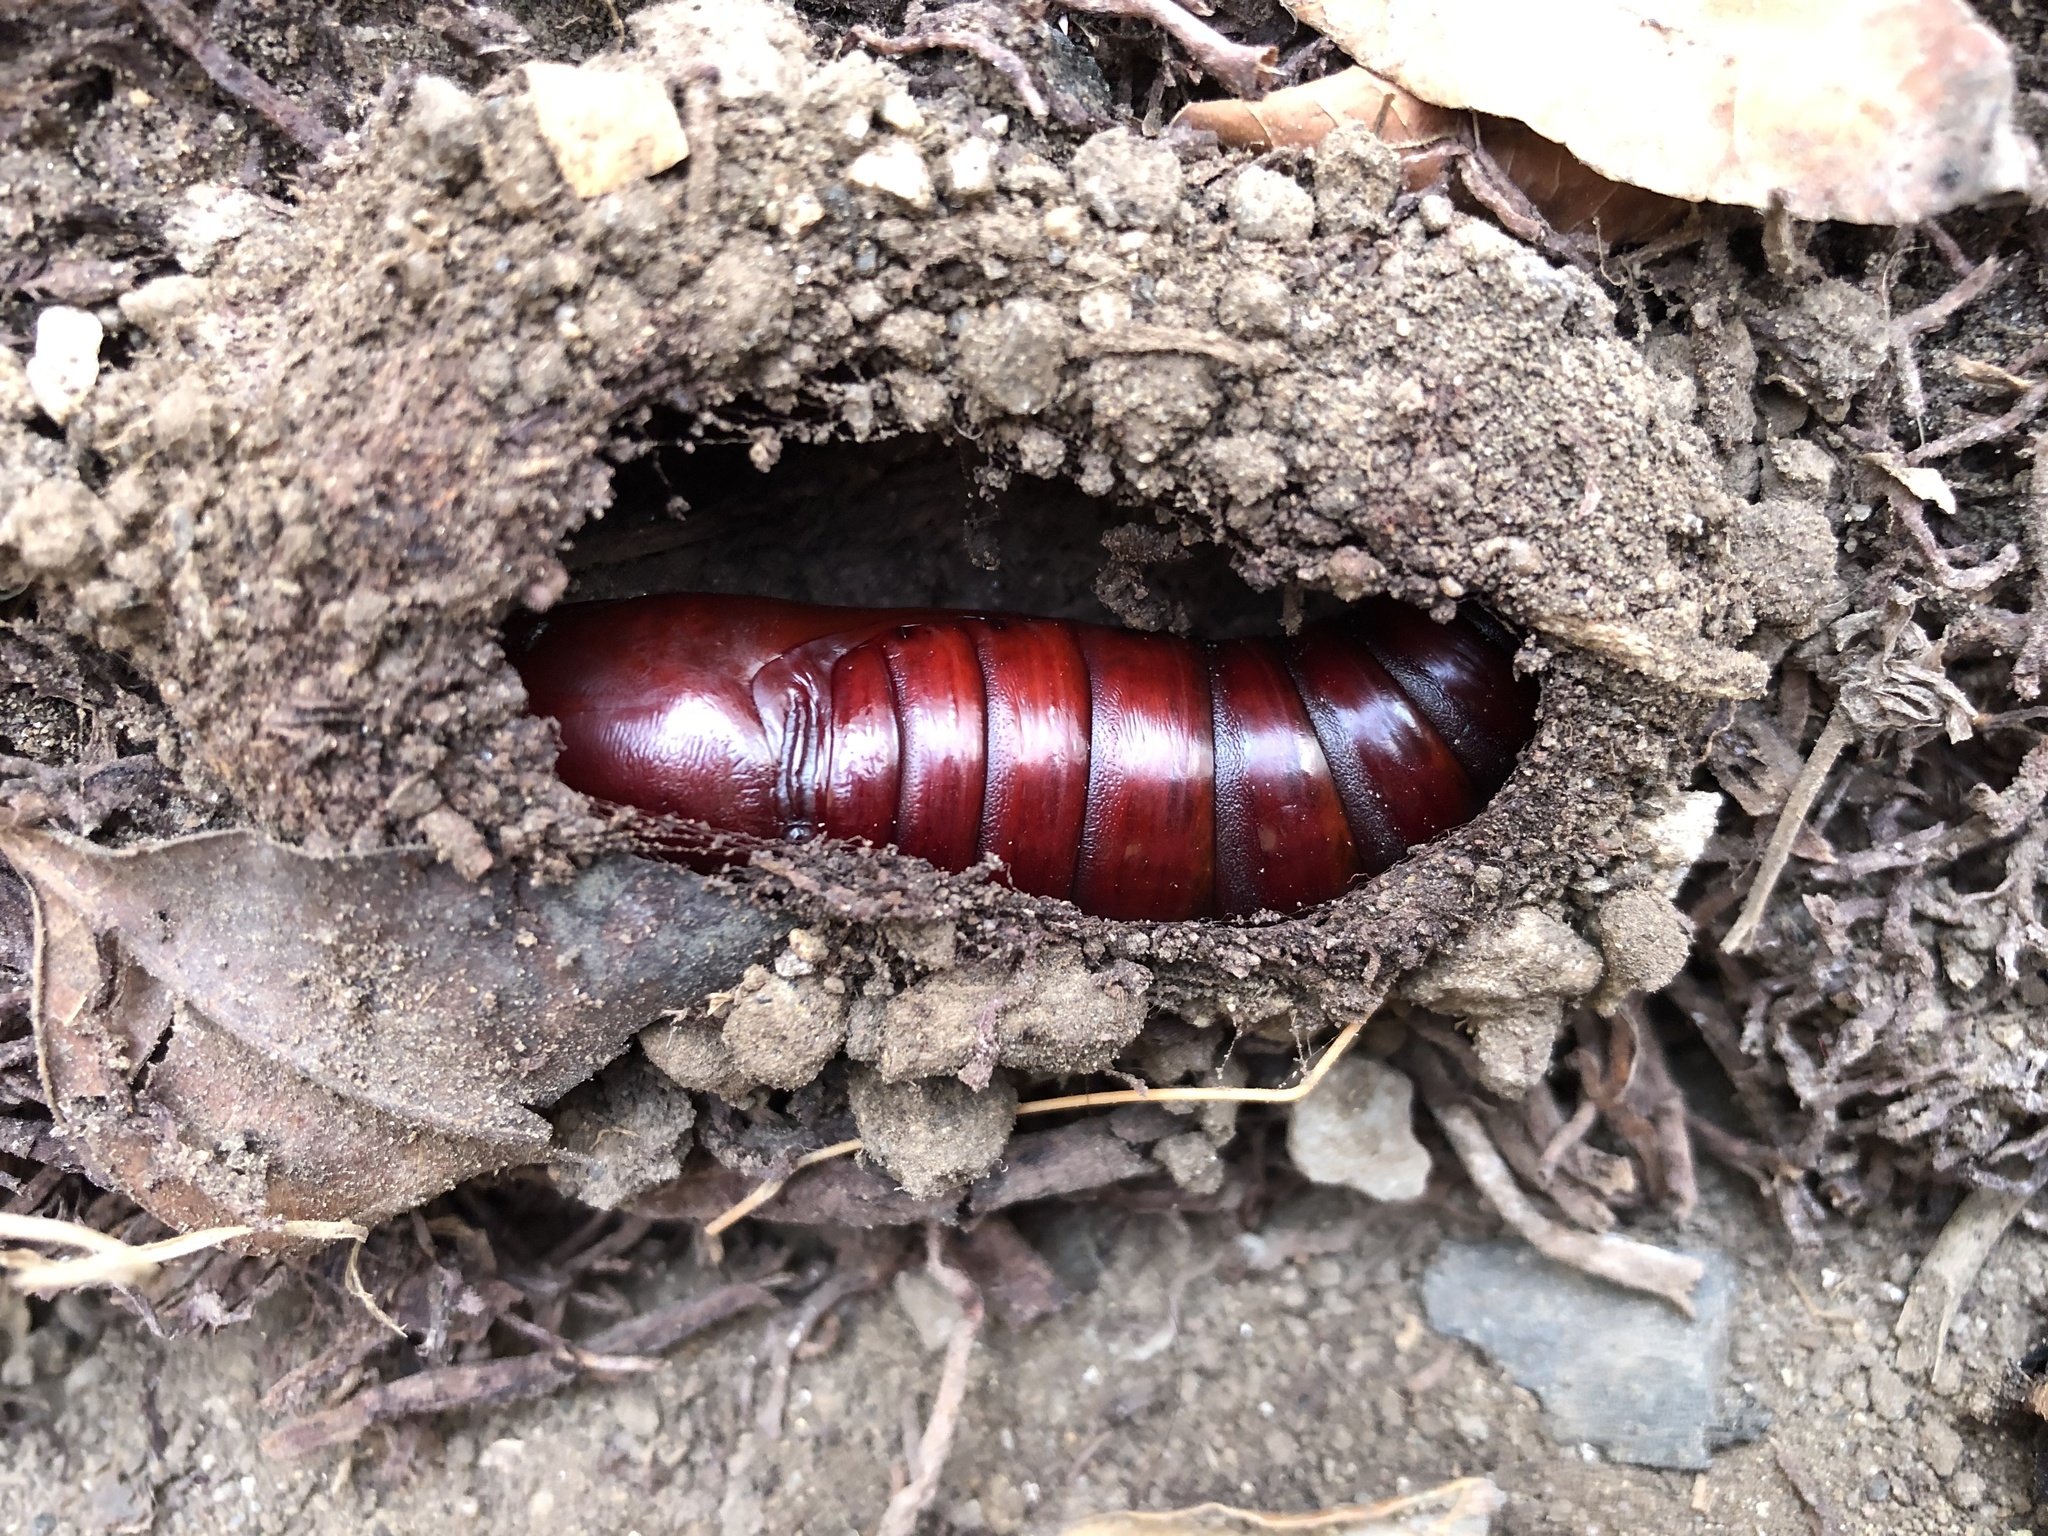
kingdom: Animalia
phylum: Arthropoda
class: Insecta
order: Lepidoptera
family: Sphingidae
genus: Pachylia
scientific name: Pachylia ficus
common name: Fig sphinx
